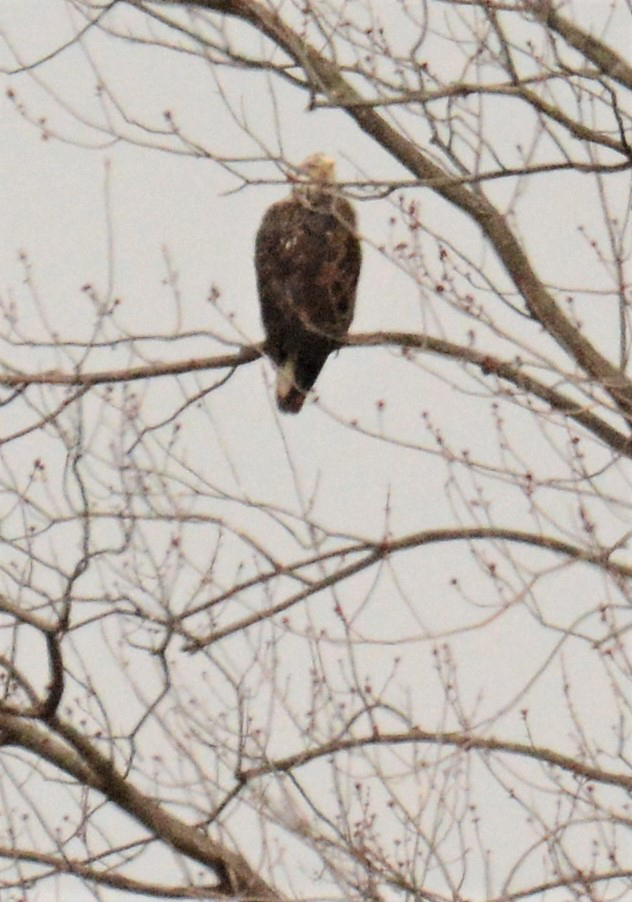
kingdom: Animalia
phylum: Chordata
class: Aves
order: Accipitriformes
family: Accipitridae
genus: Haliaeetus
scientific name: Haliaeetus leucocephalus
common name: Bald eagle
